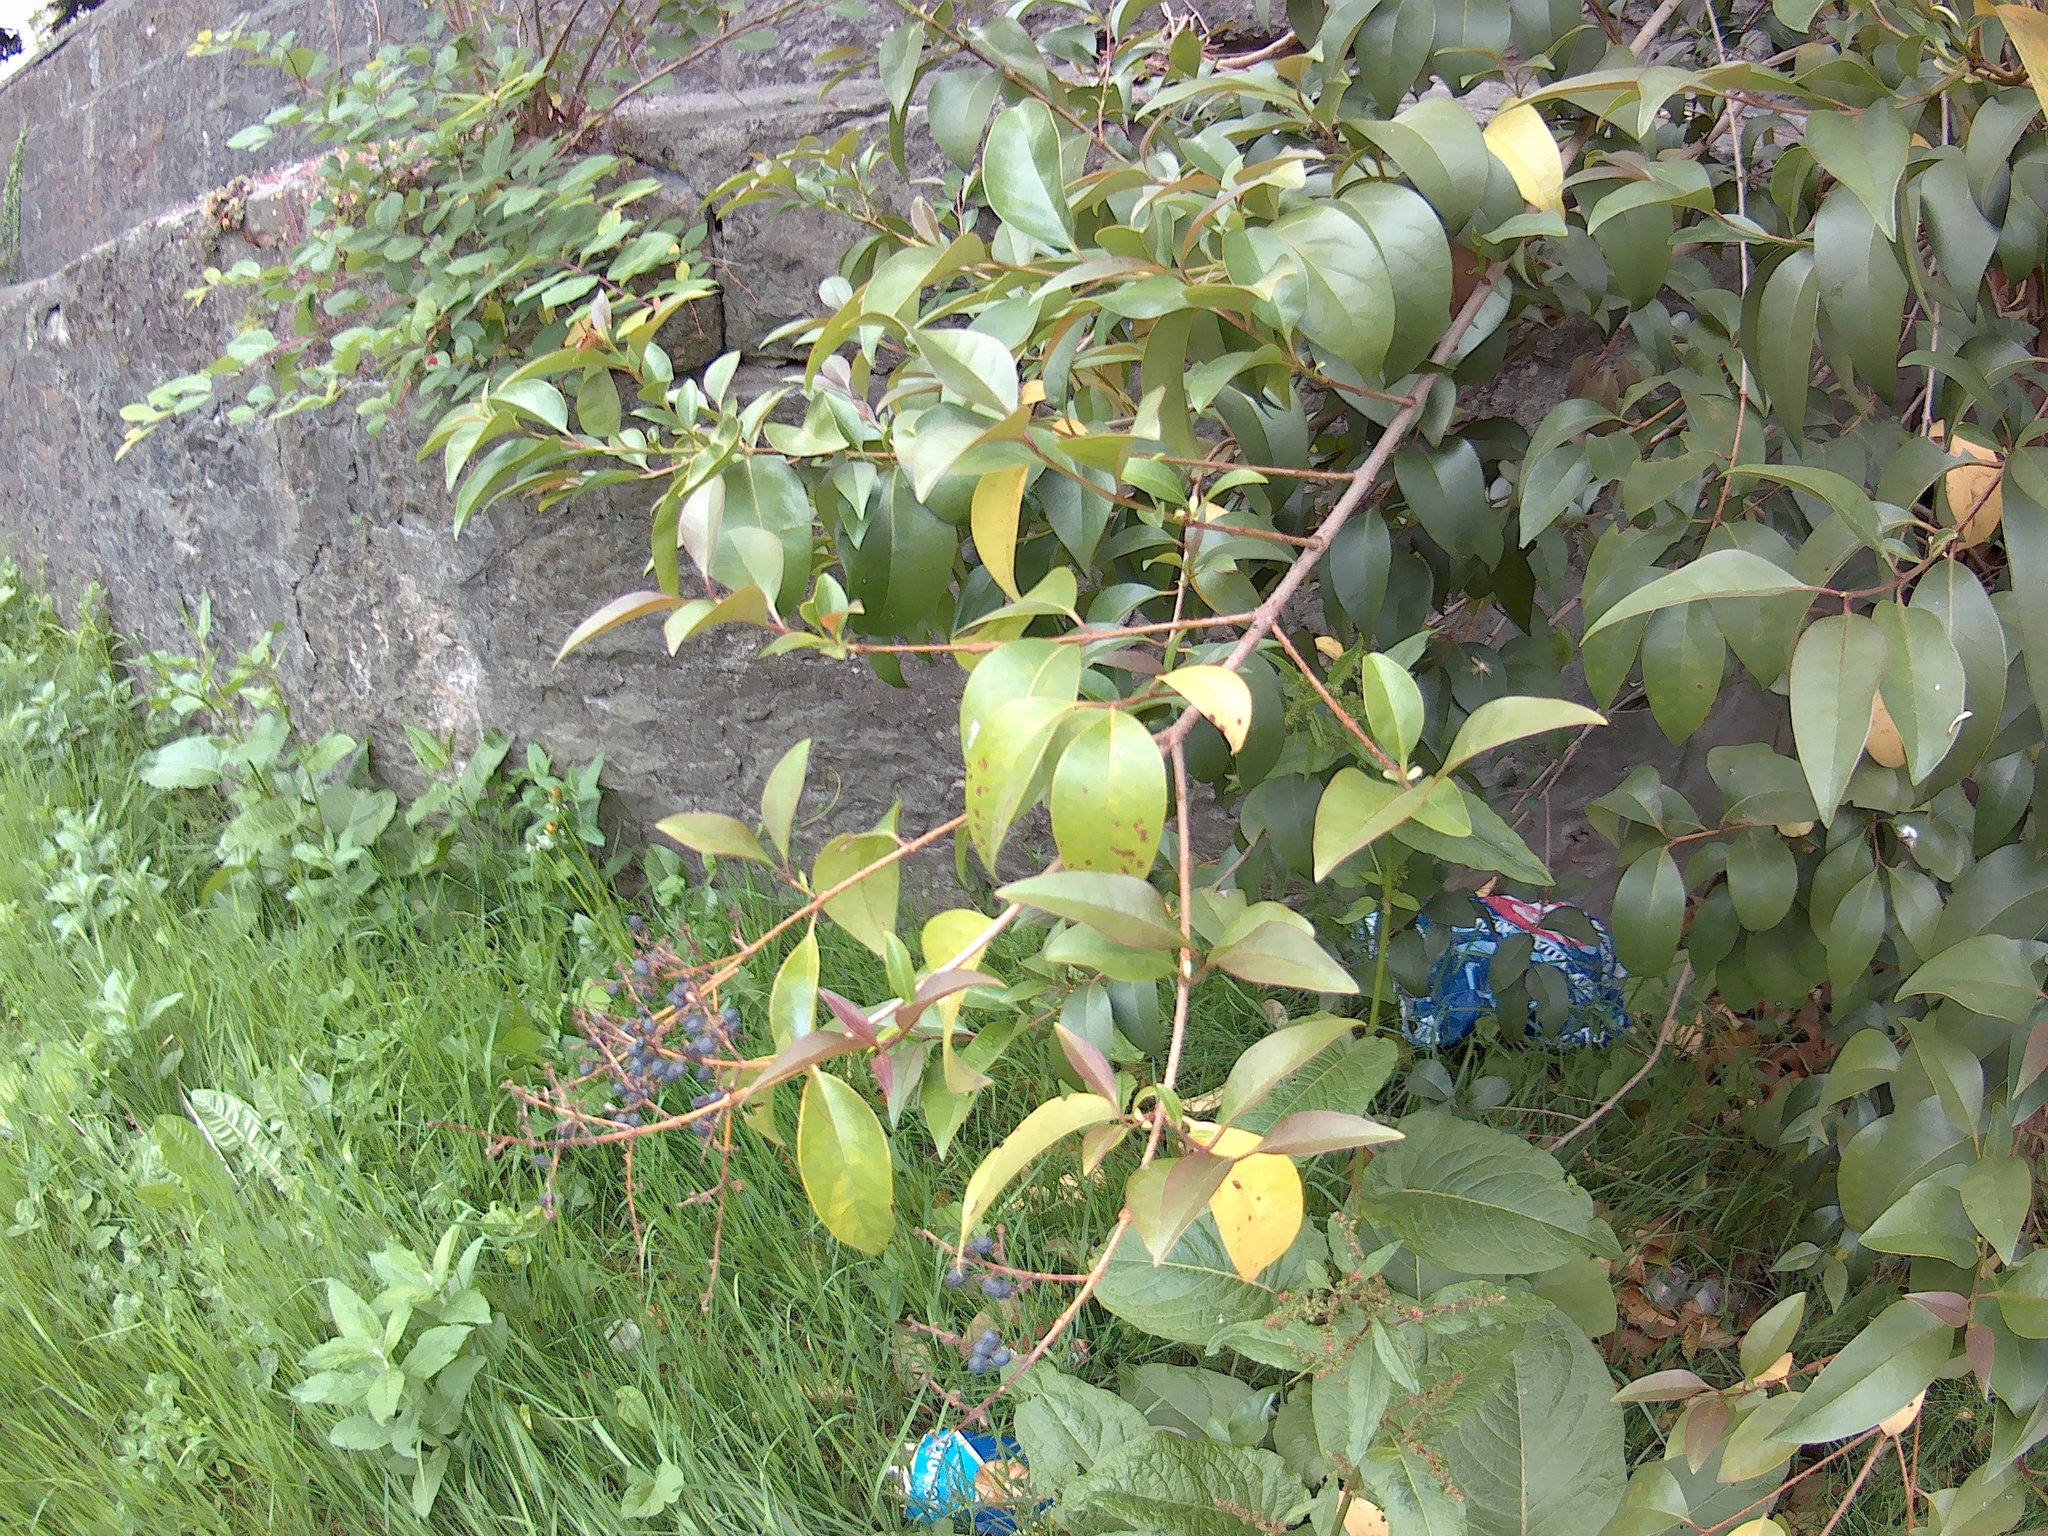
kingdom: Plantae
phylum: Tracheophyta
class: Magnoliopsida
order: Lamiales
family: Oleaceae
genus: Ligustrum
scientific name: Ligustrum lucidum
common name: Glossy privet
